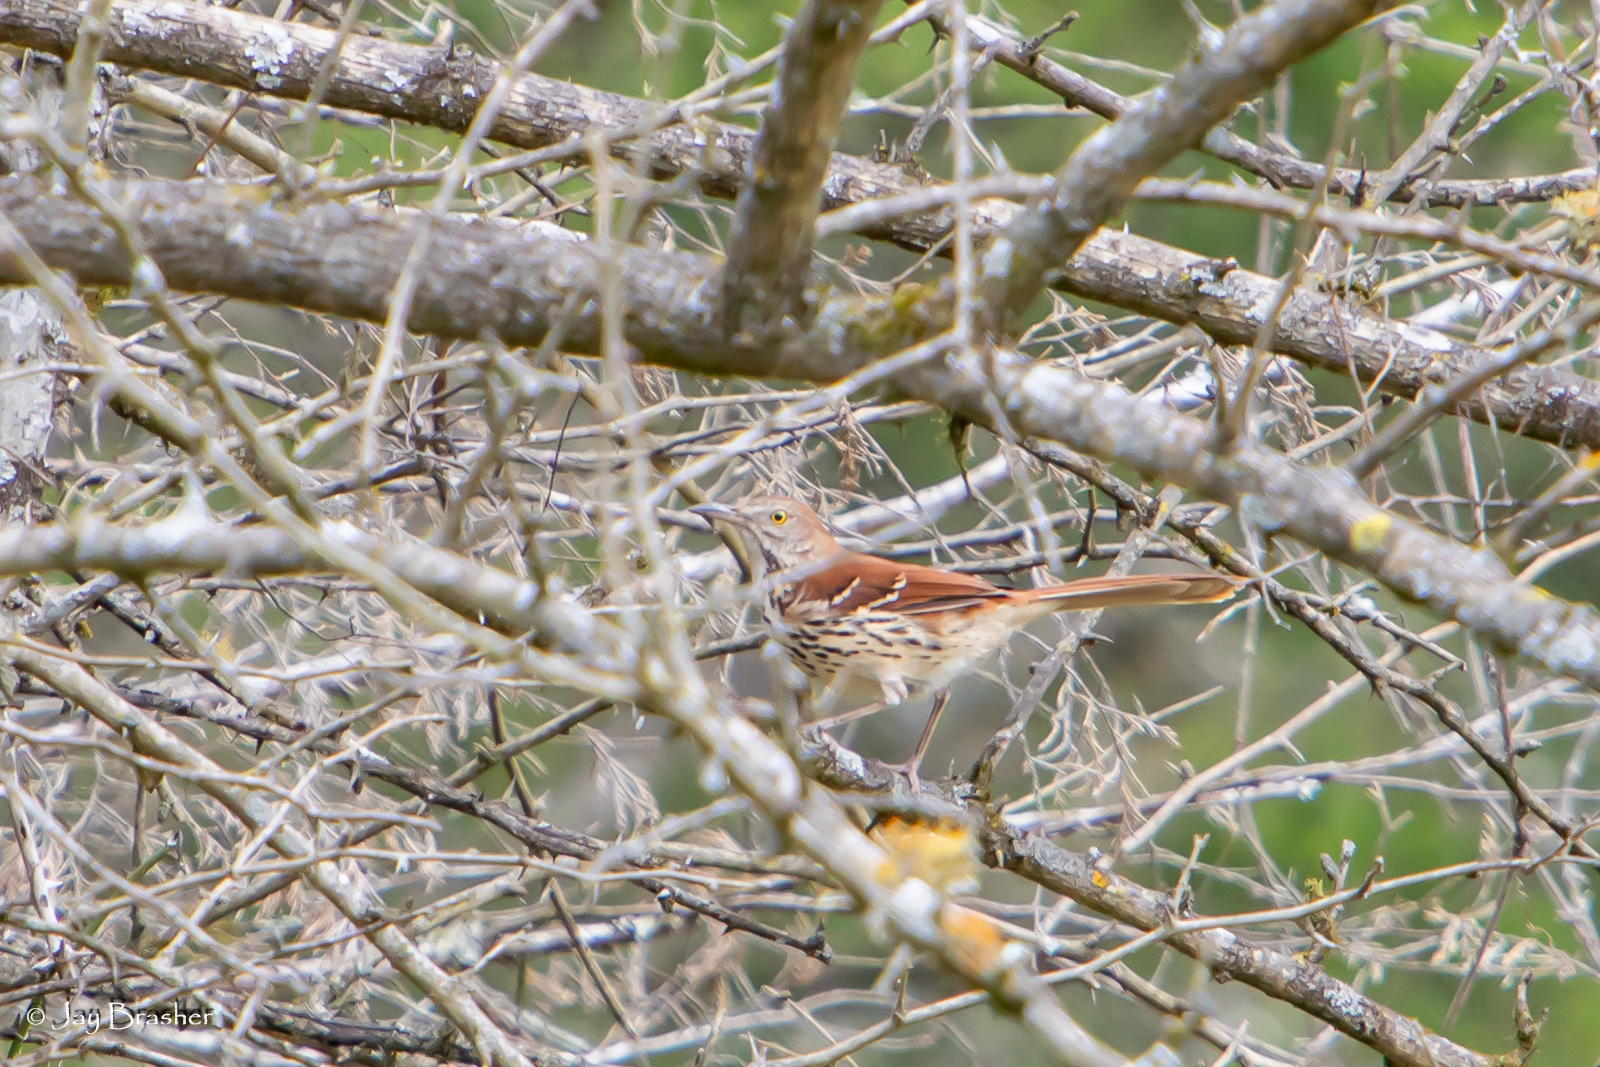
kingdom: Animalia
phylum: Chordata
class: Aves
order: Passeriformes
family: Mimidae
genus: Toxostoma
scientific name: Toxostoma rufum
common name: Brown thrasher
